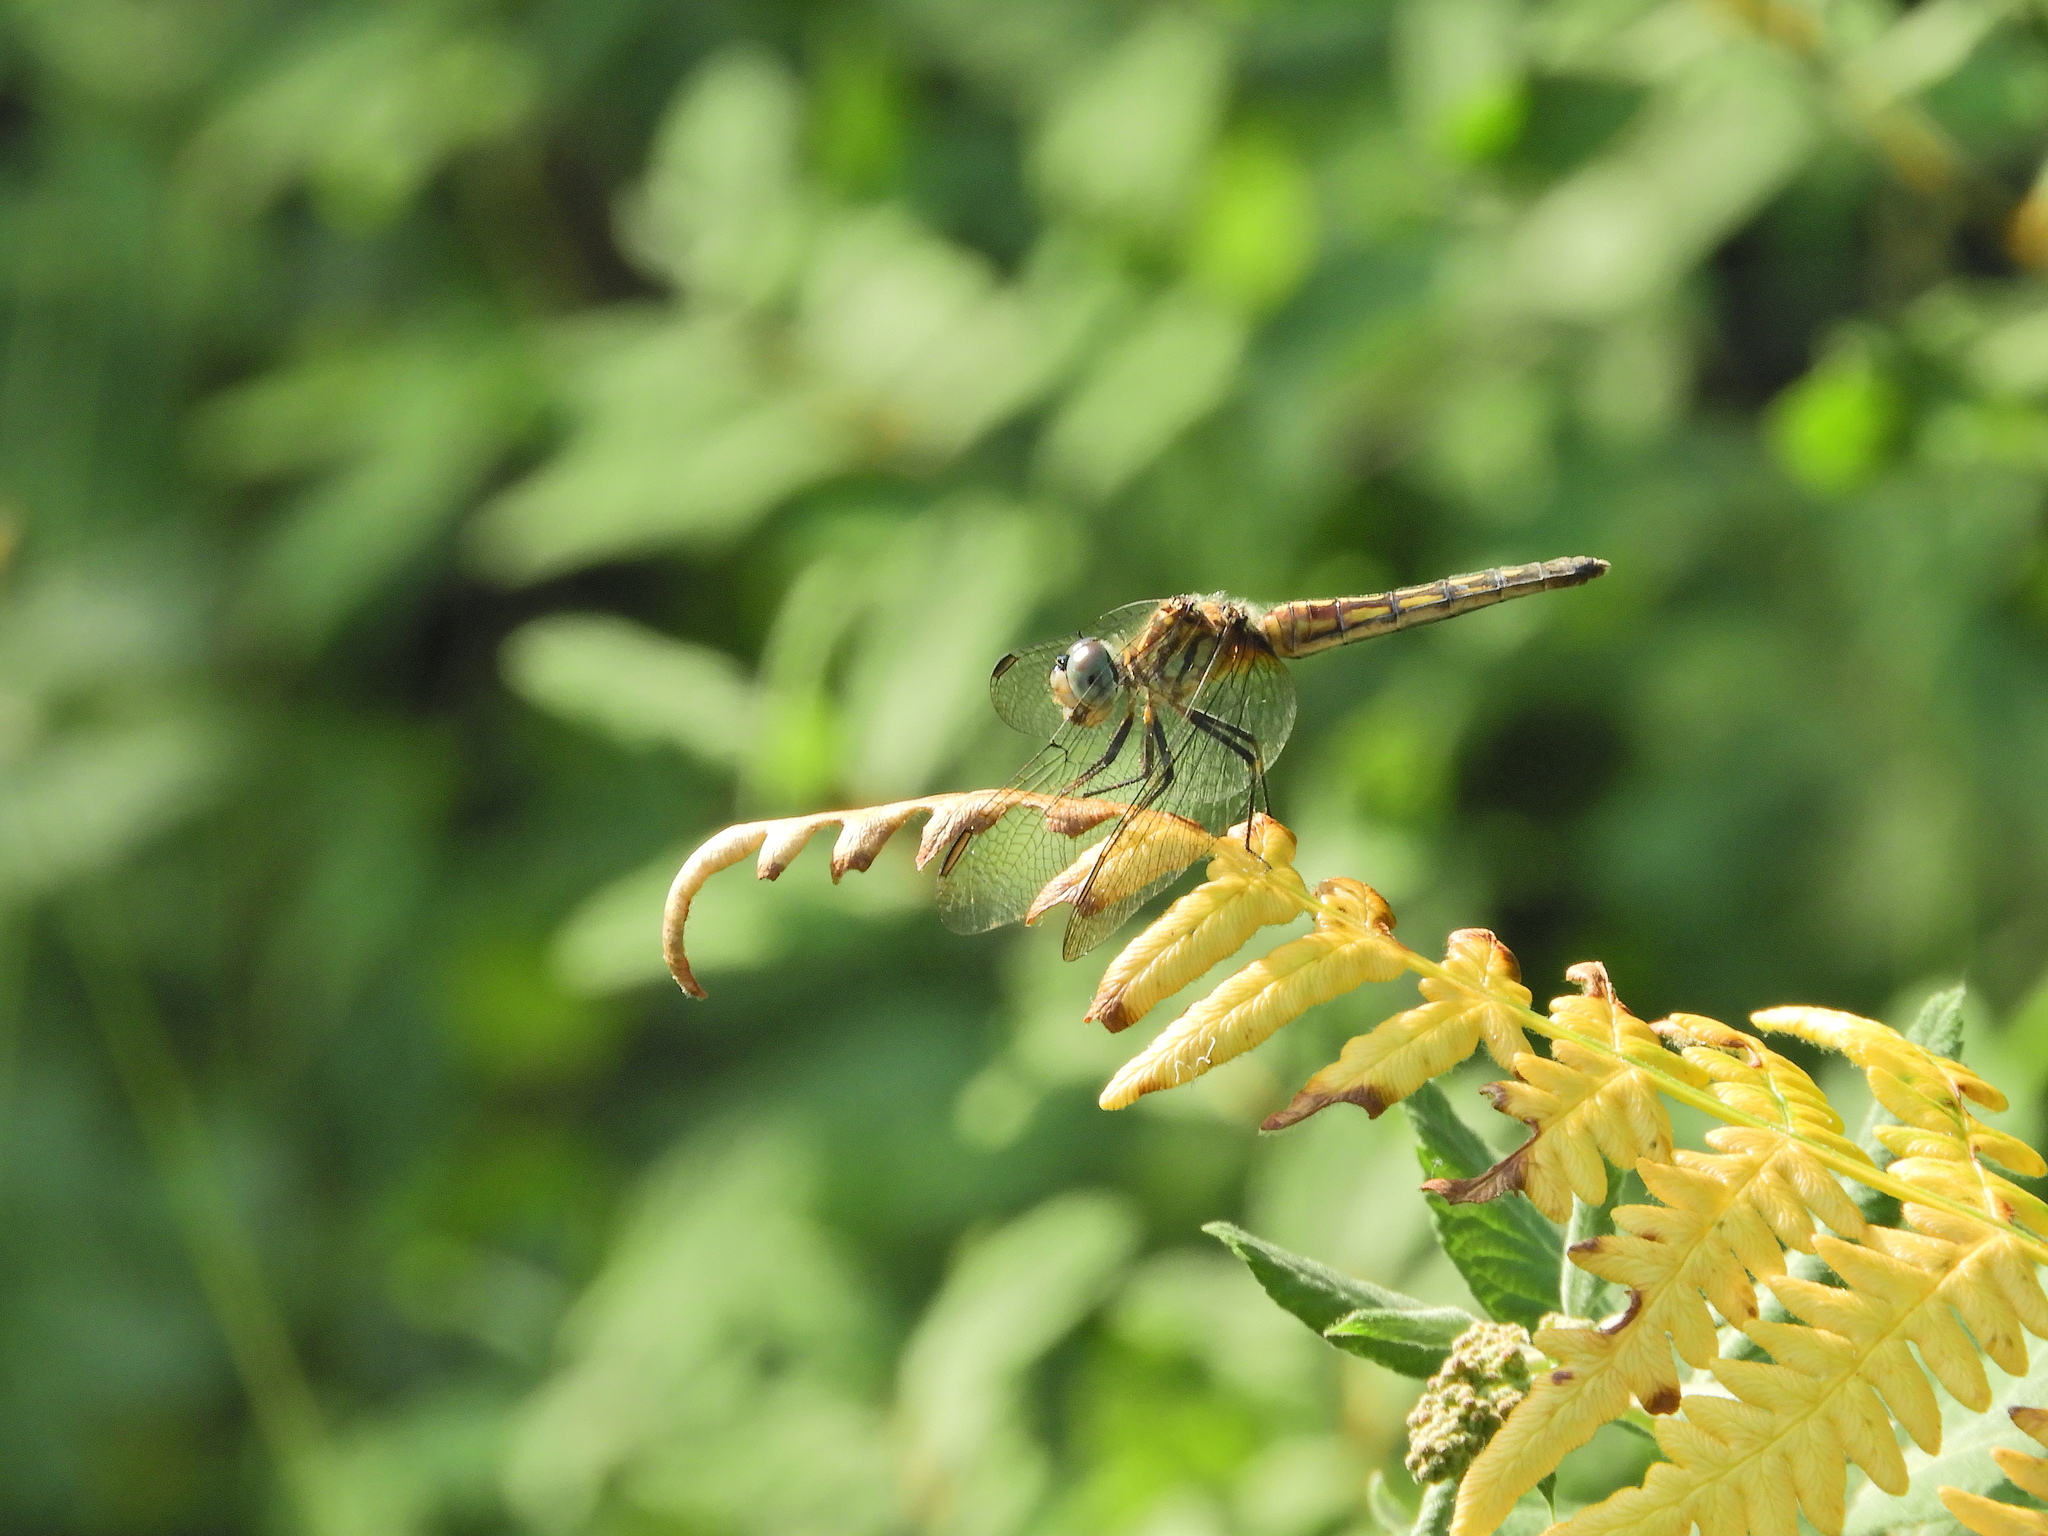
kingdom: Animalia
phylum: Arthropoda
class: Insecta
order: Odonata
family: Libellulidae
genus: Pachydiplax
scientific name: Pachydiplax longipennis
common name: Blue dasher
